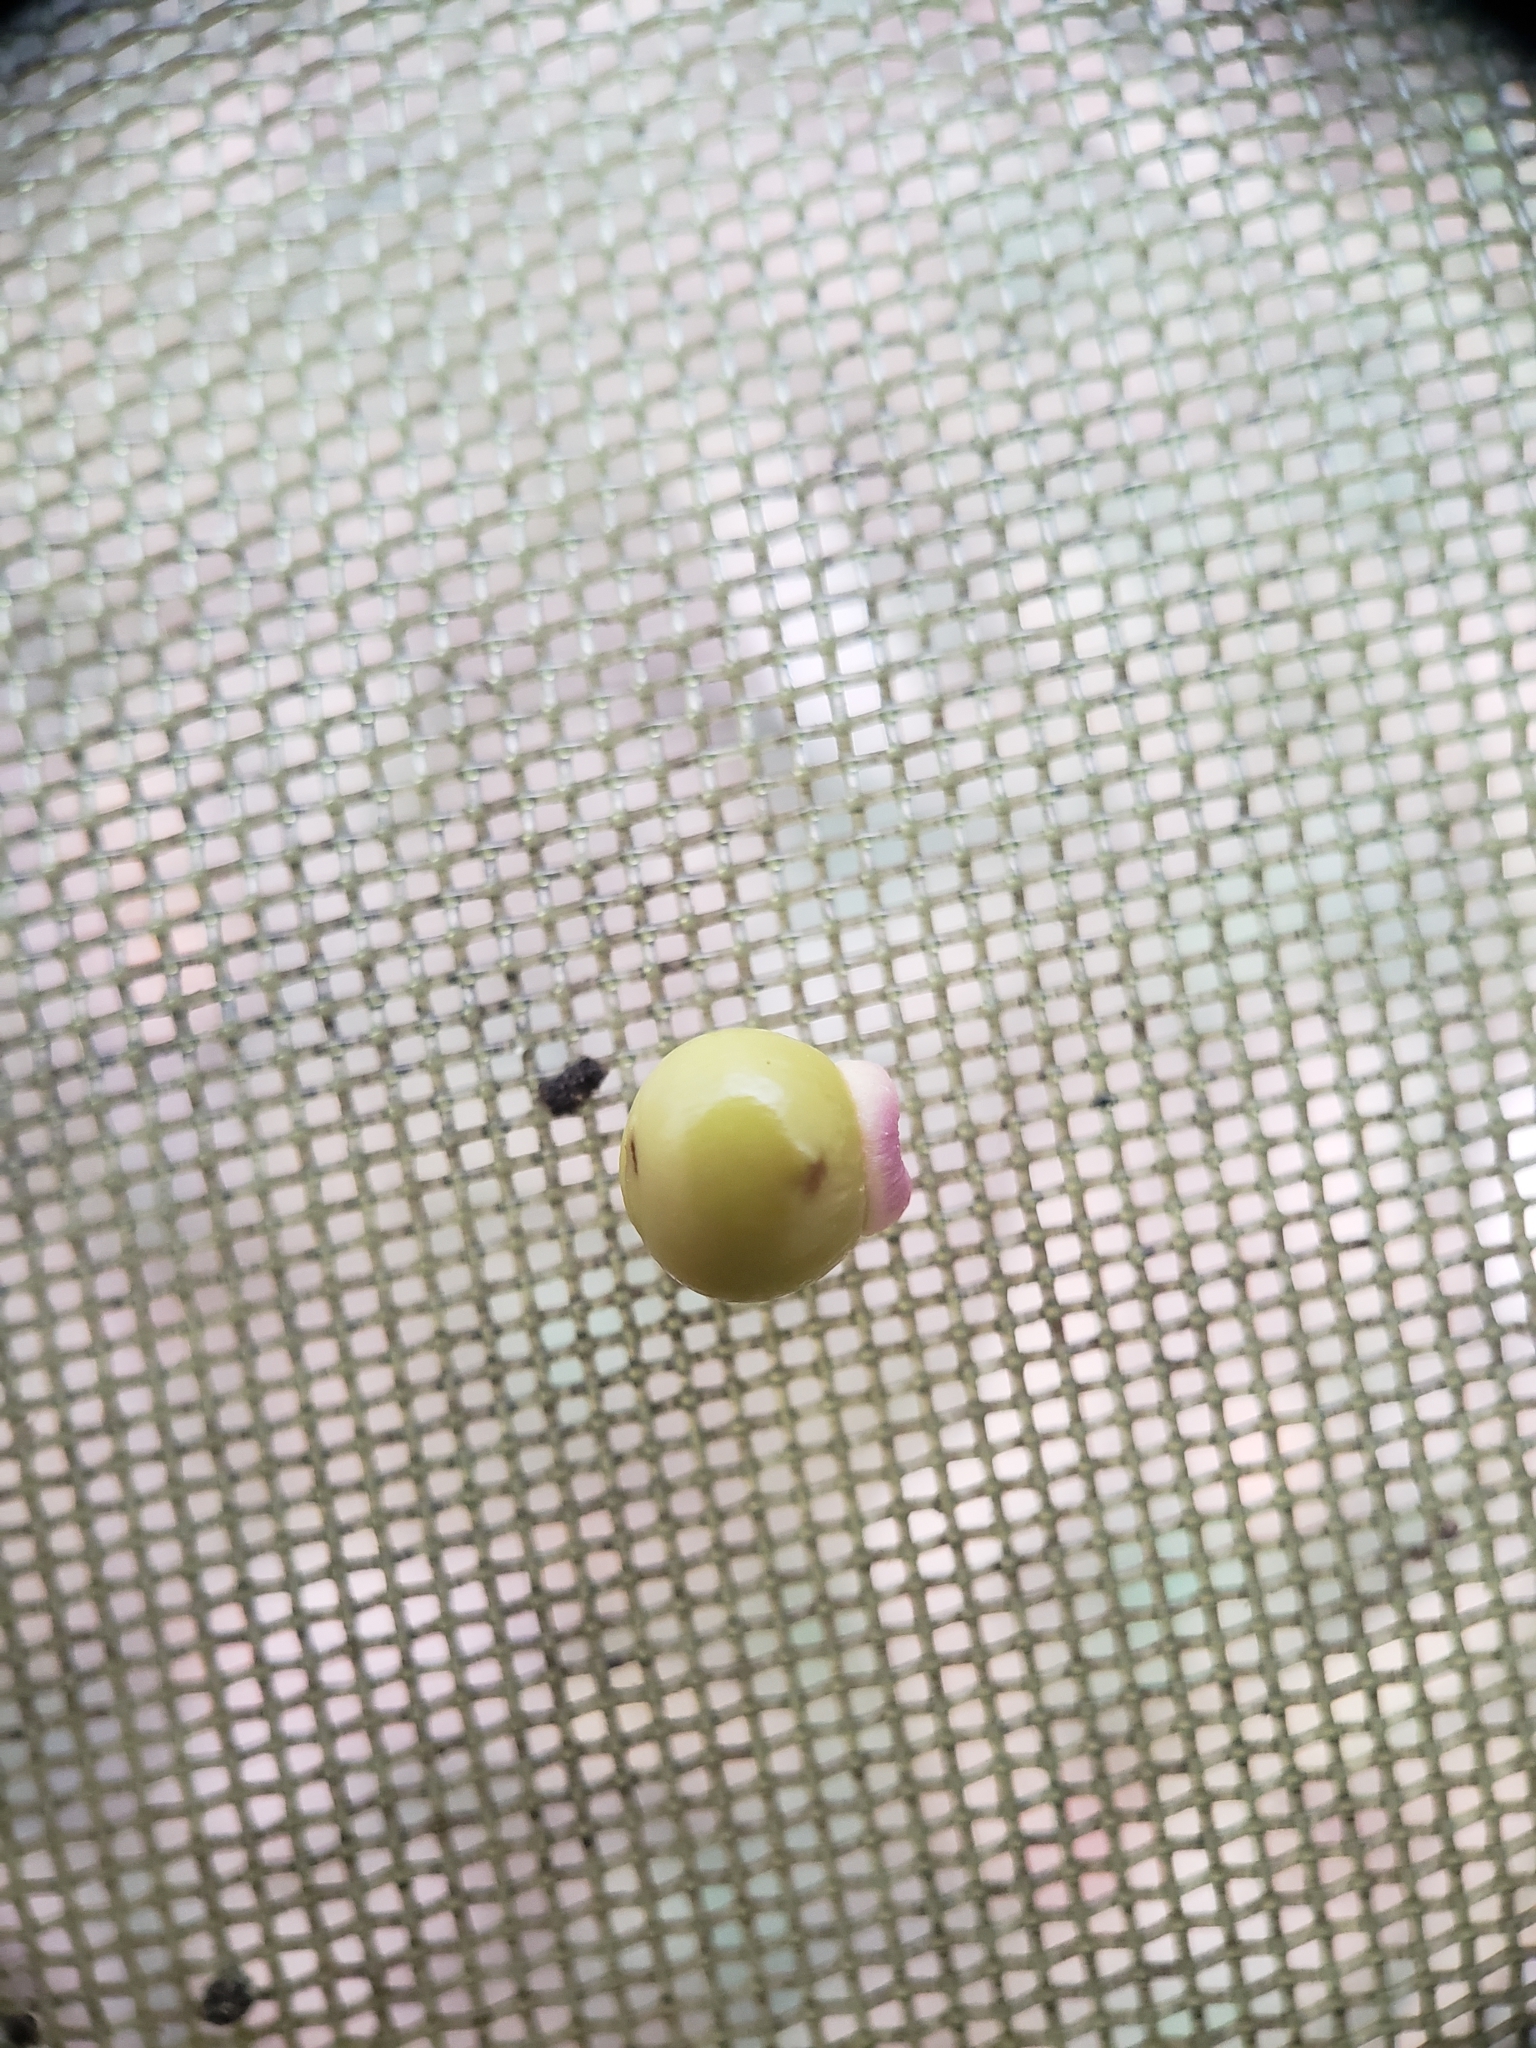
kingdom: Animalia
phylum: Arthropoda
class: Insecta
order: Hymenoptera
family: Cynipidae
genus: Kokkocynips
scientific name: Kokkocynips rileyi
